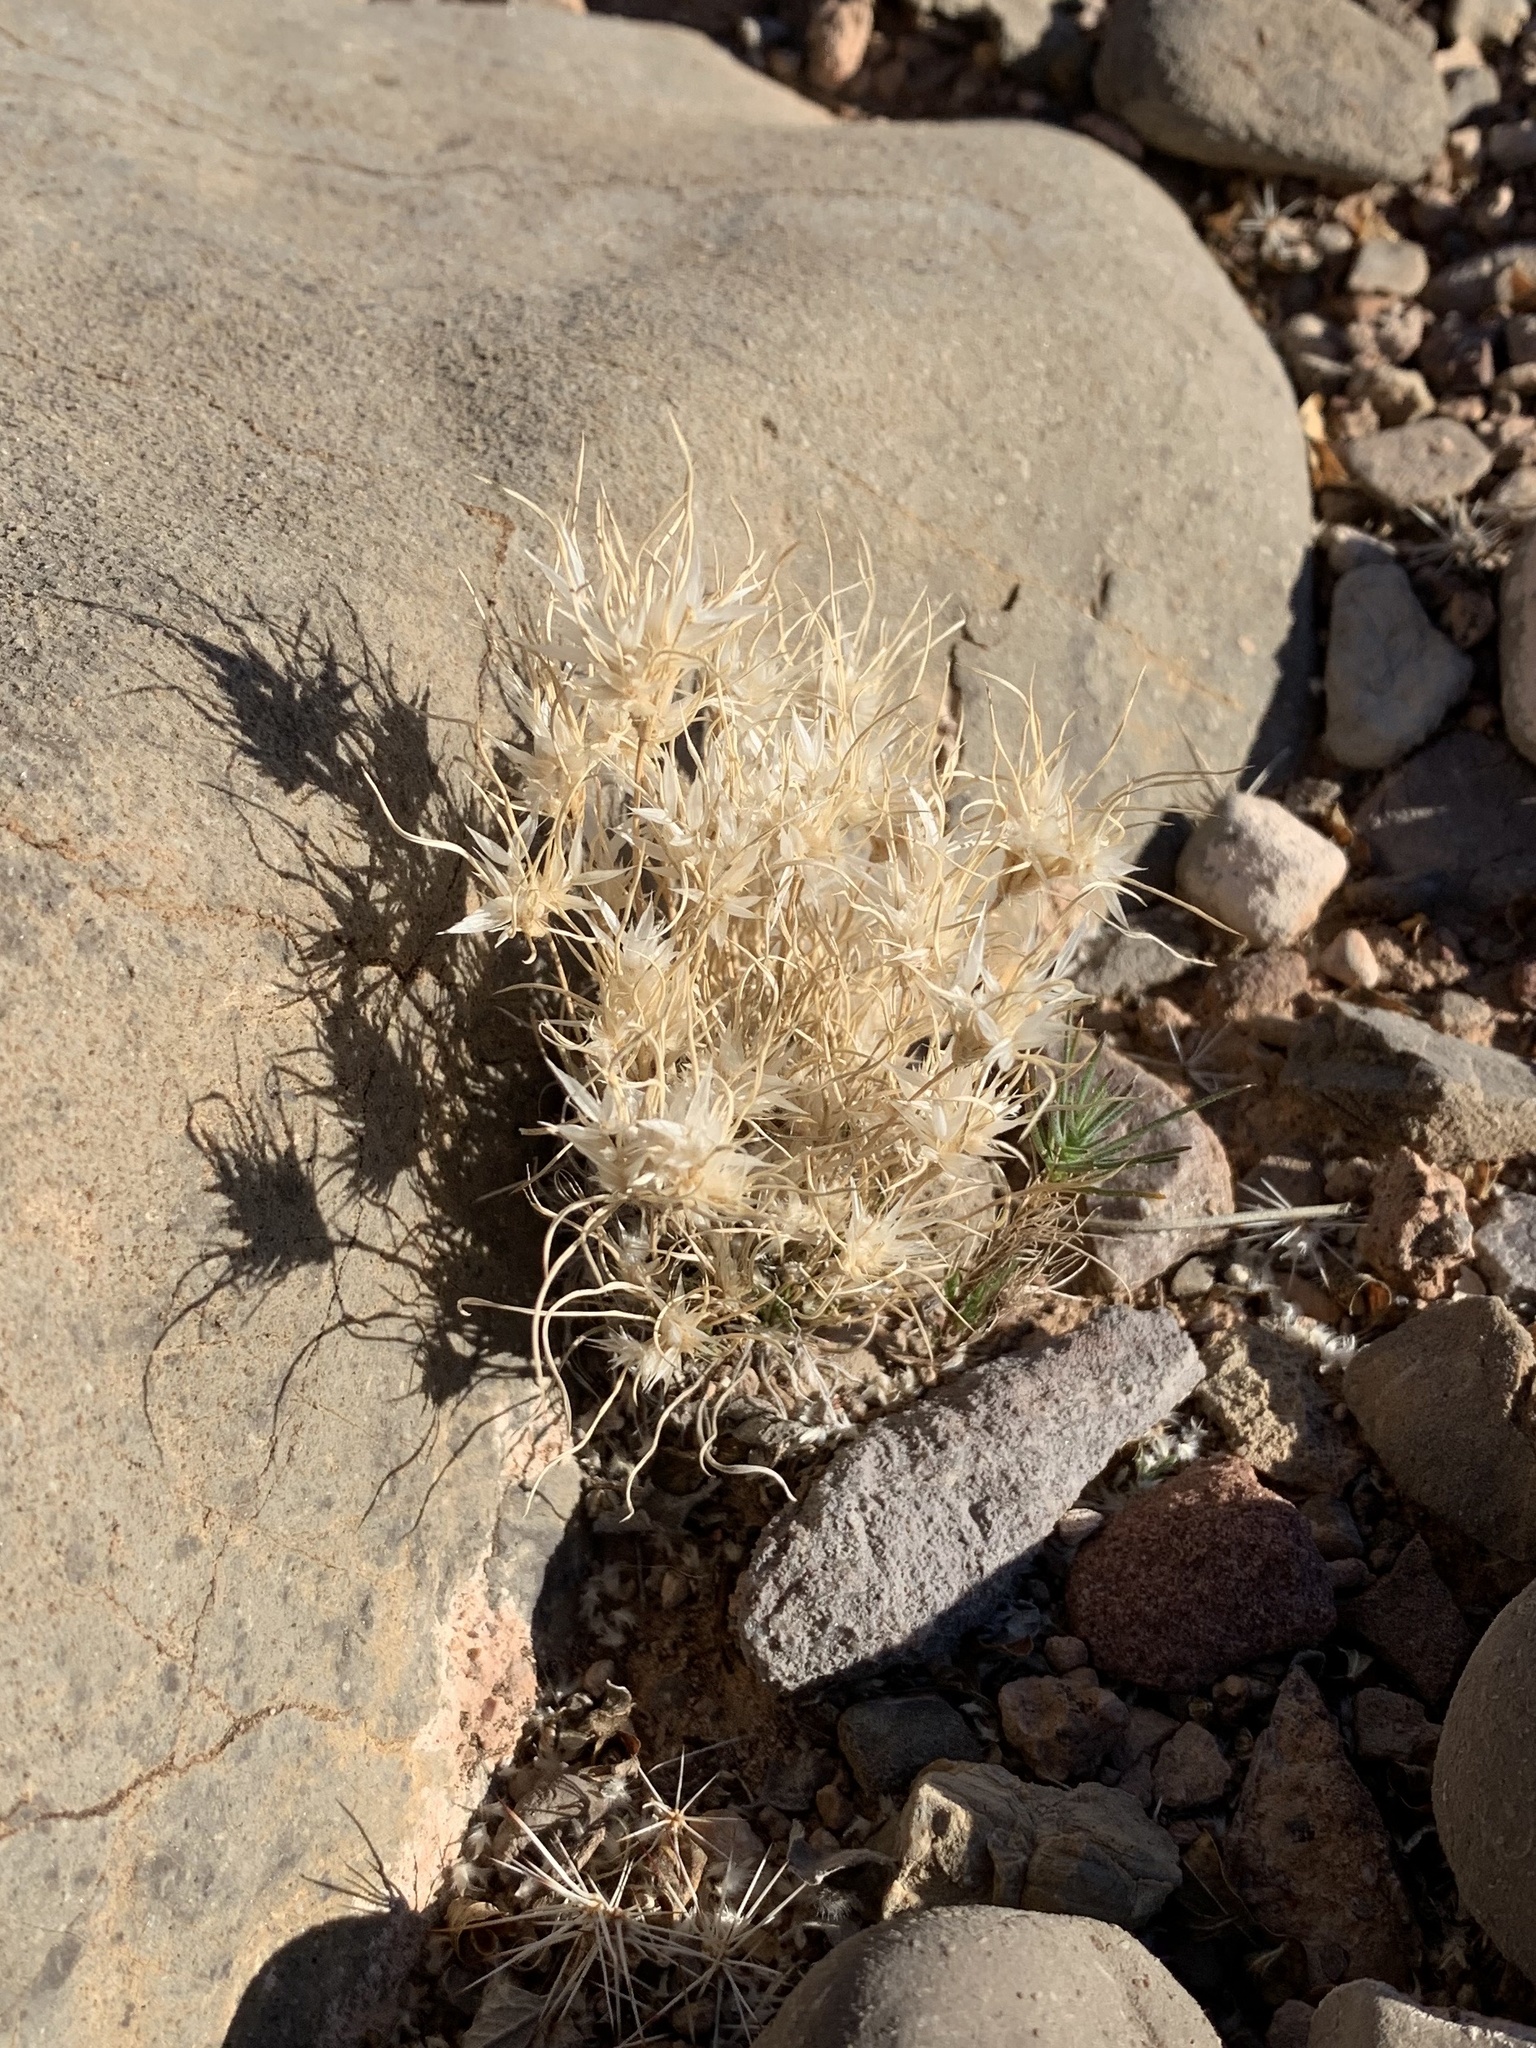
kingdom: Plantae
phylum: Tracheophyta
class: Liliopsida
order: Poales
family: Poaceae
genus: Dasyochloa
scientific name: Dasyochloa pulchella
